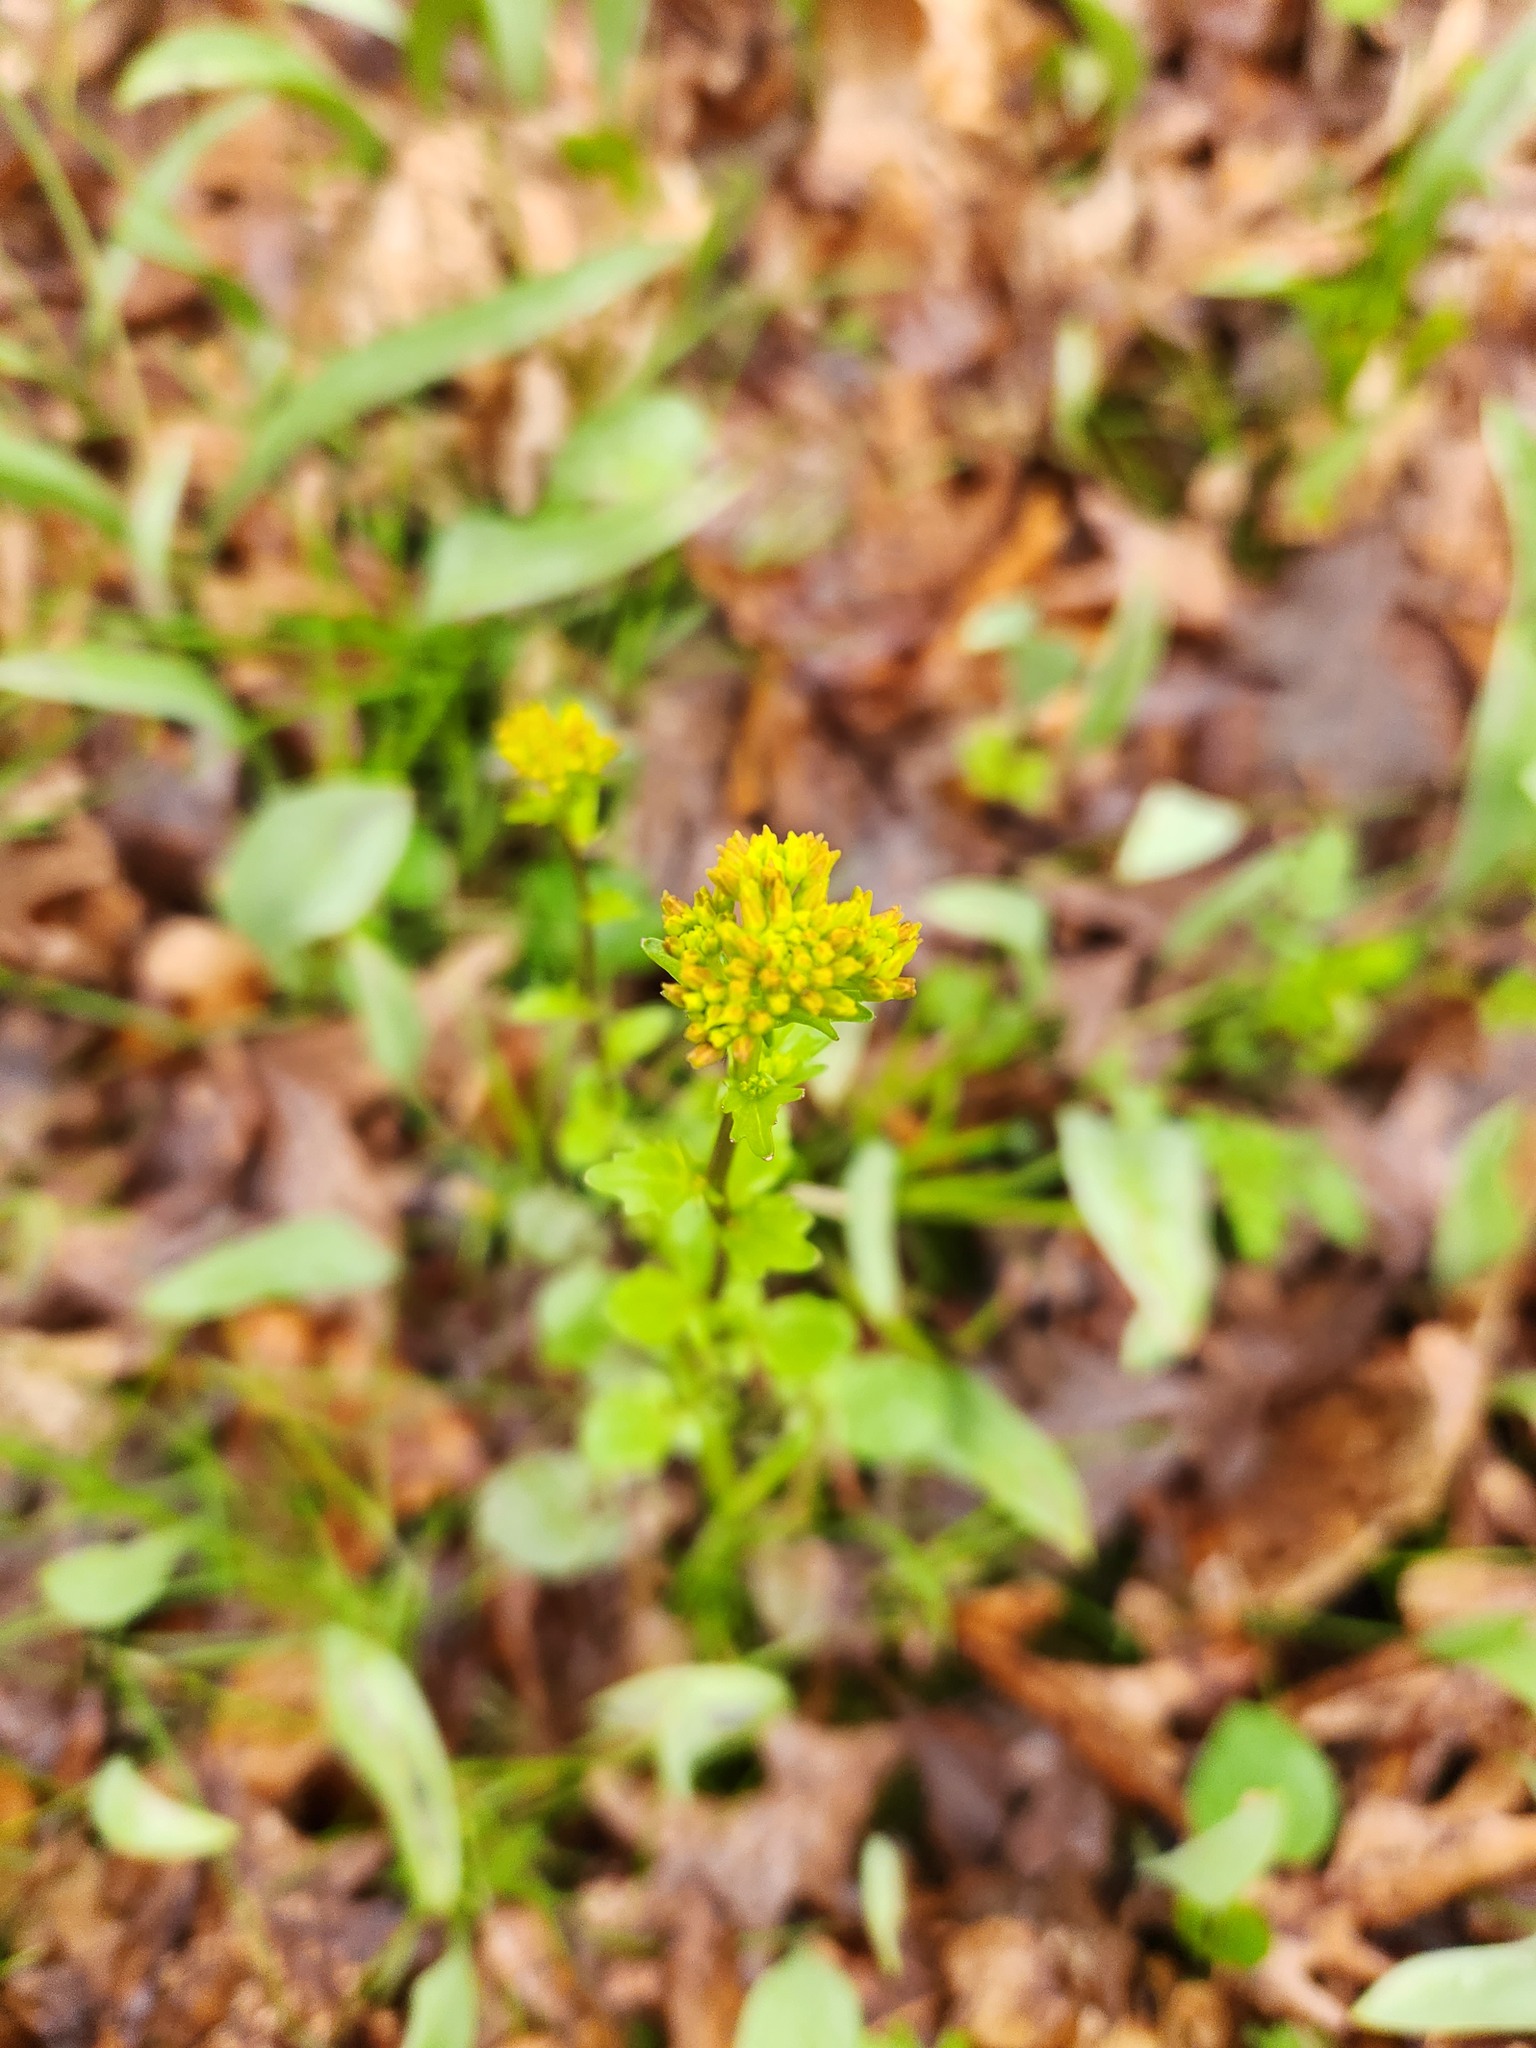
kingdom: Plantae
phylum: Tracheophyta
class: Magnoliopsida
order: Brassicales
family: Brassicaceae
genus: Barbarea
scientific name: Barbarea vulgaris
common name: Cressy-greens
